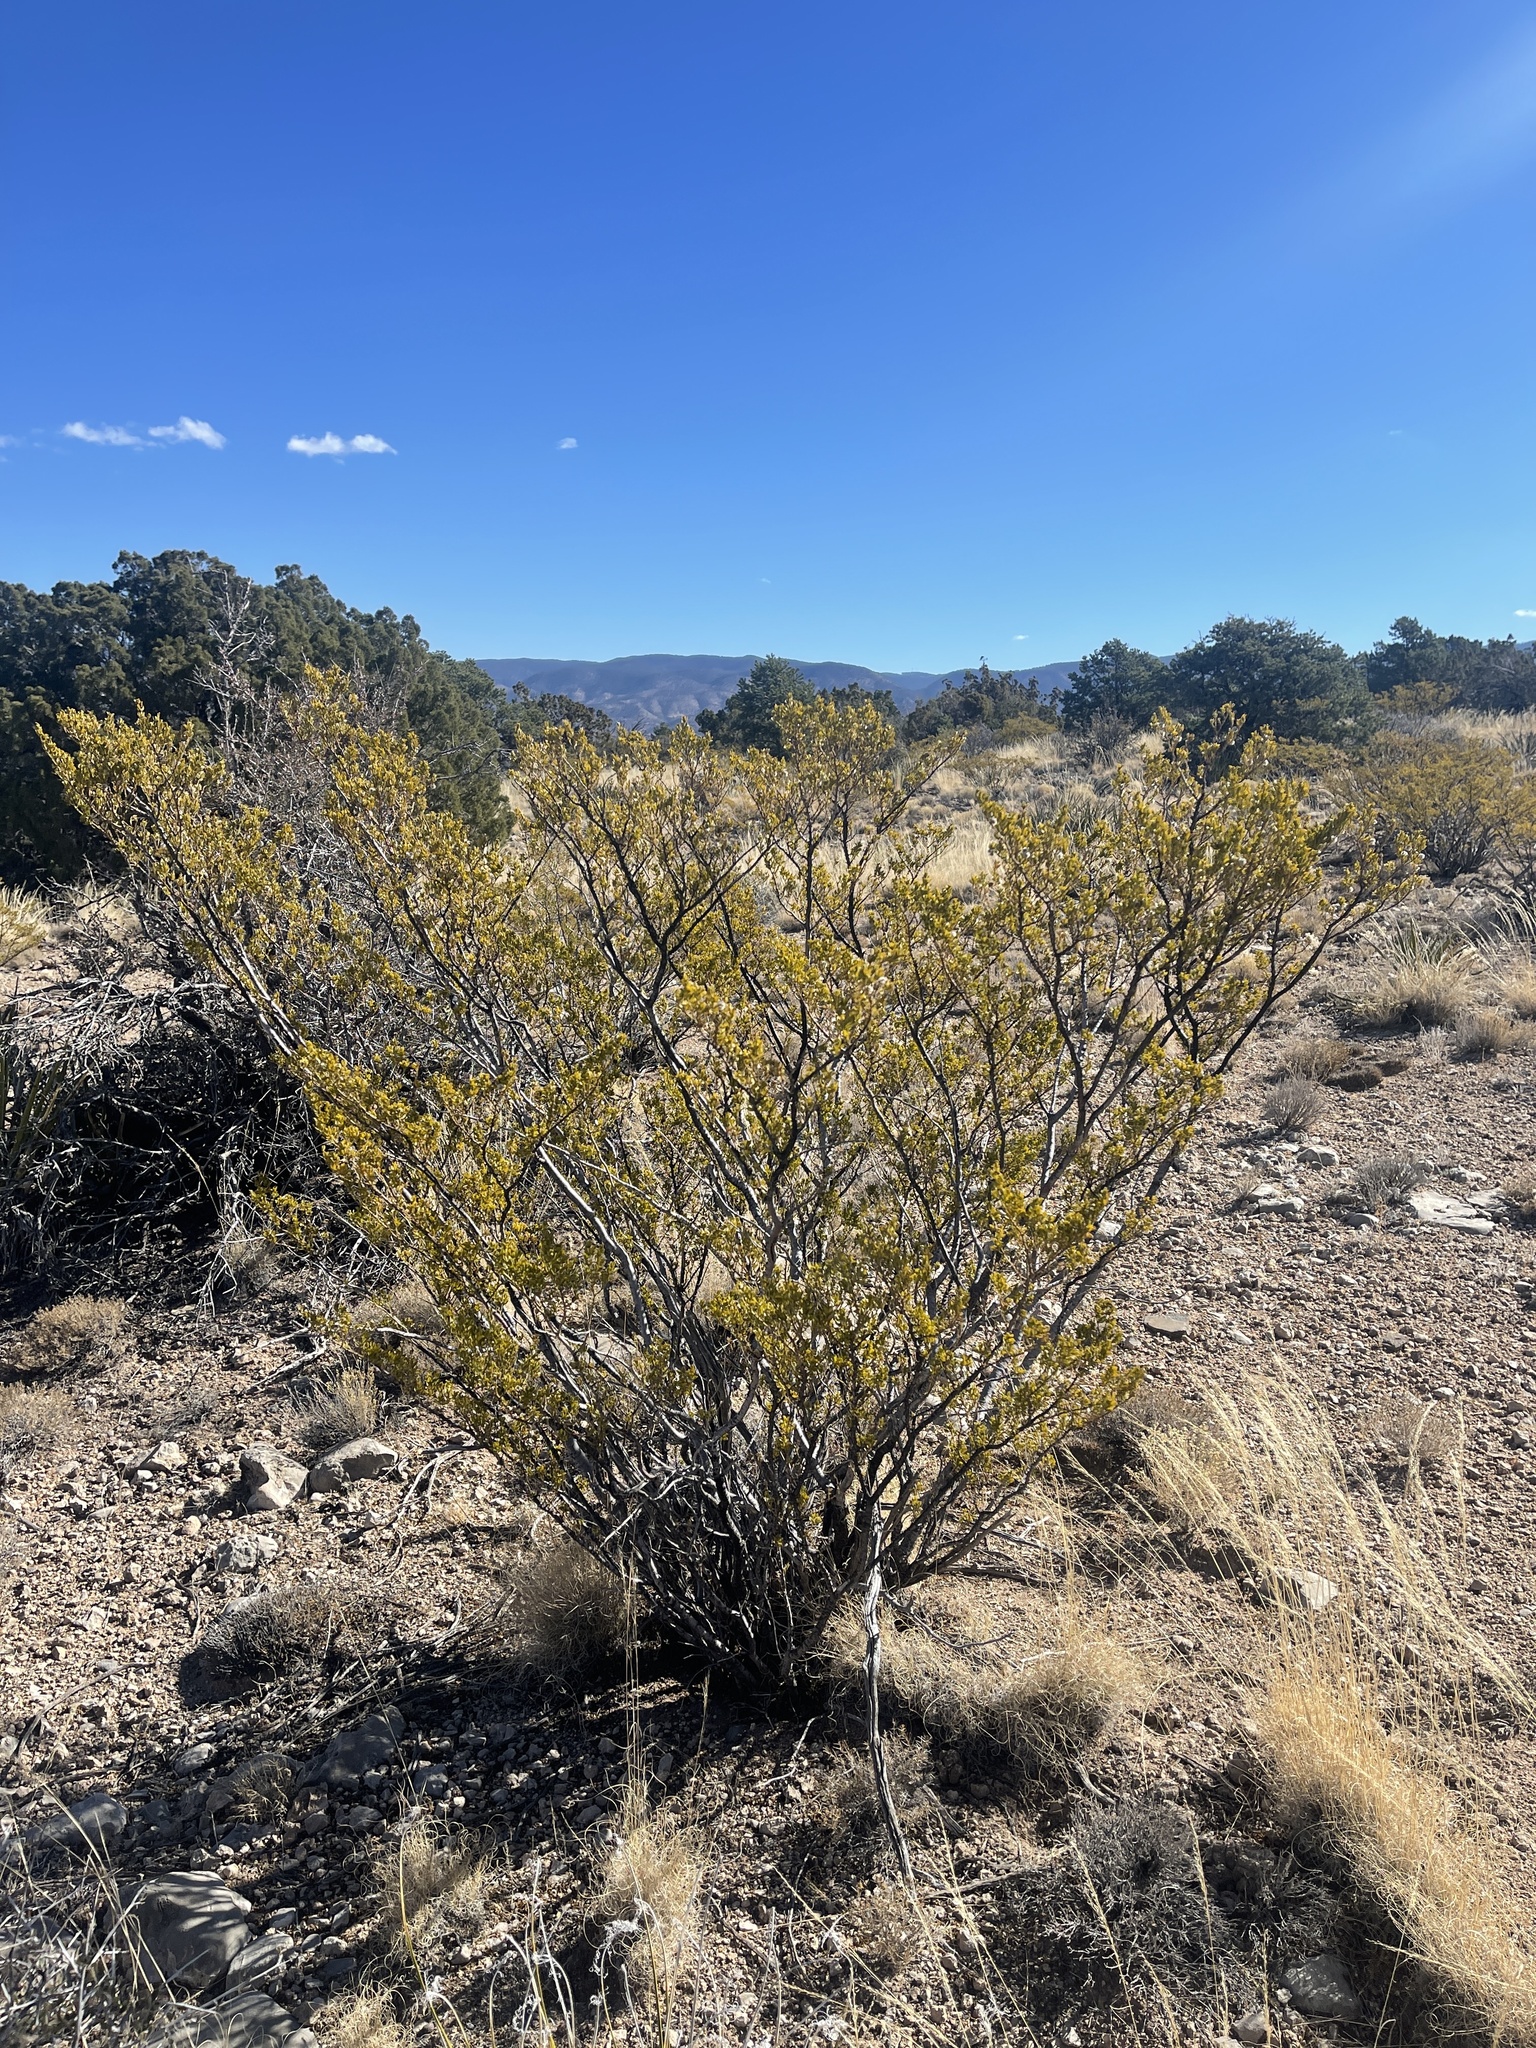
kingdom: Plantae
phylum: Tracheophyta
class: Magnoliopsida
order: Zygophyllales
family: Zygophyllaceae
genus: Larrea
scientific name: Larrea tridentata
